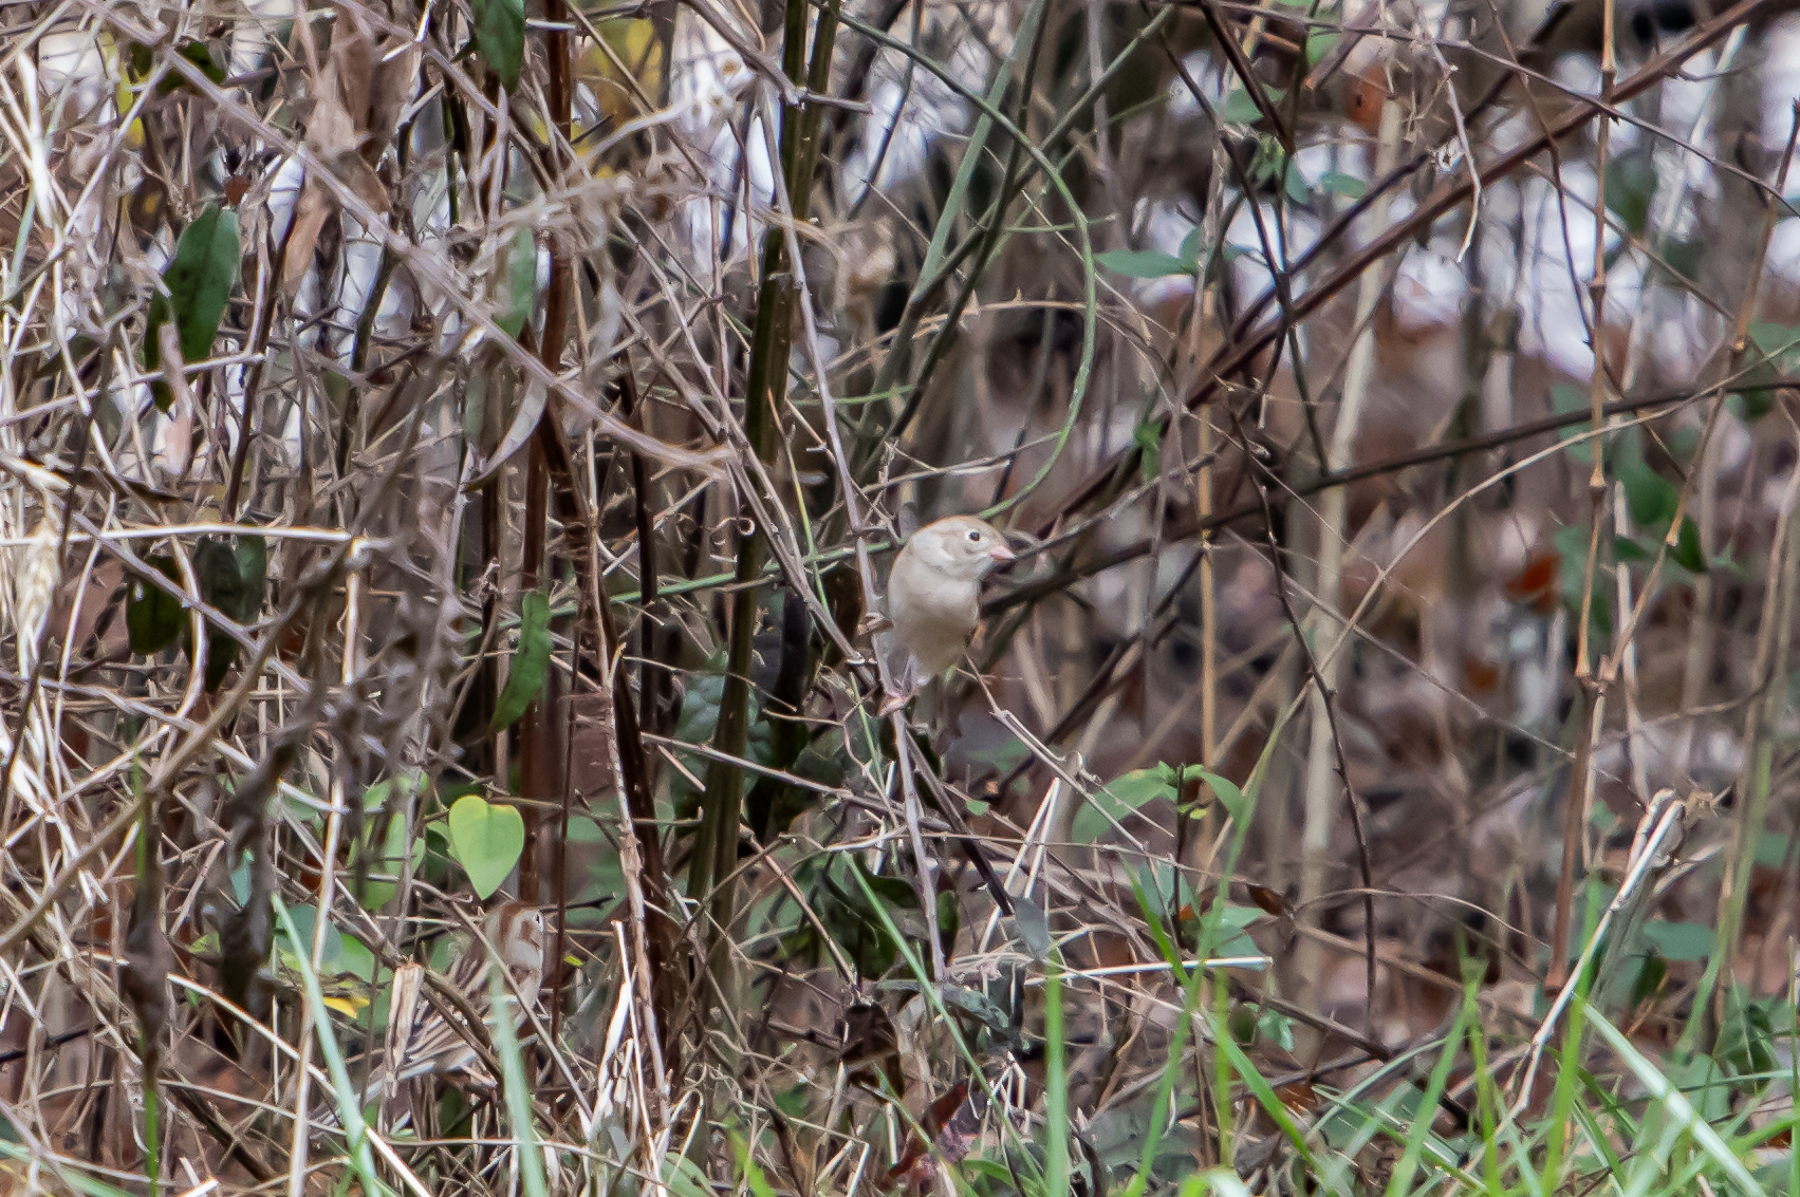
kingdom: Animalia
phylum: Chordata
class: Aves
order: Passeriformes
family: Passerellidae
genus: Spizella
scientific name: Spizella pusilla
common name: Field sparrow
